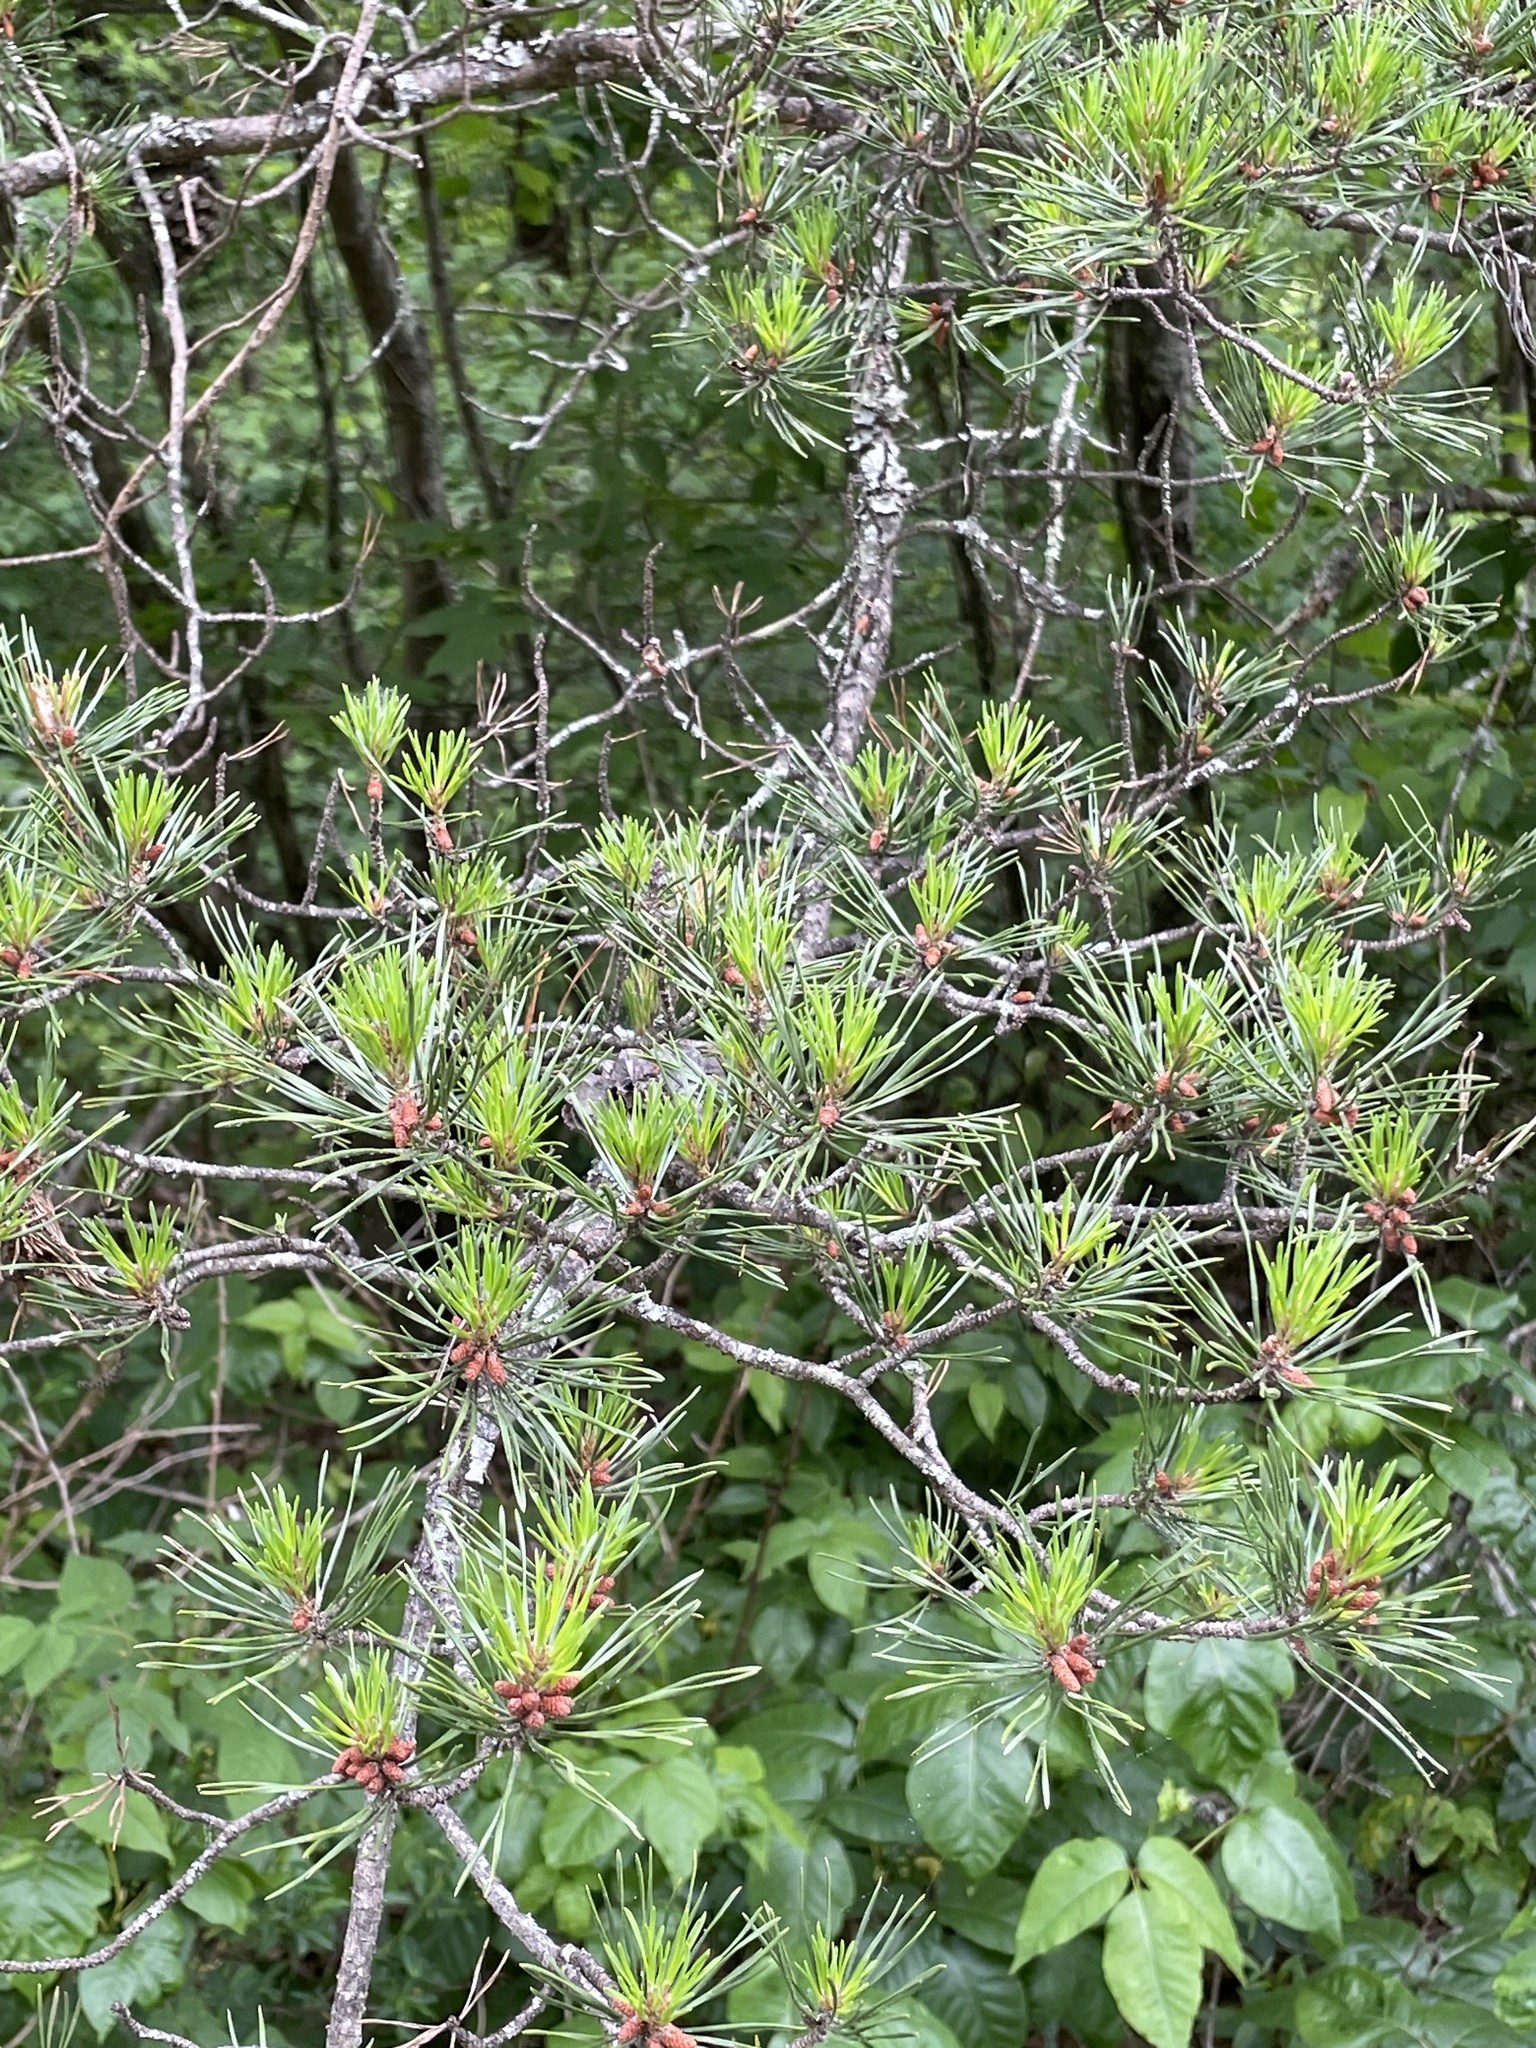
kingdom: Plantae
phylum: Tracheophyta
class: Pinopsida
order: Pinales
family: Pinaceae
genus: Pinus
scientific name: Pinus virginiana
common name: Scrub pine
